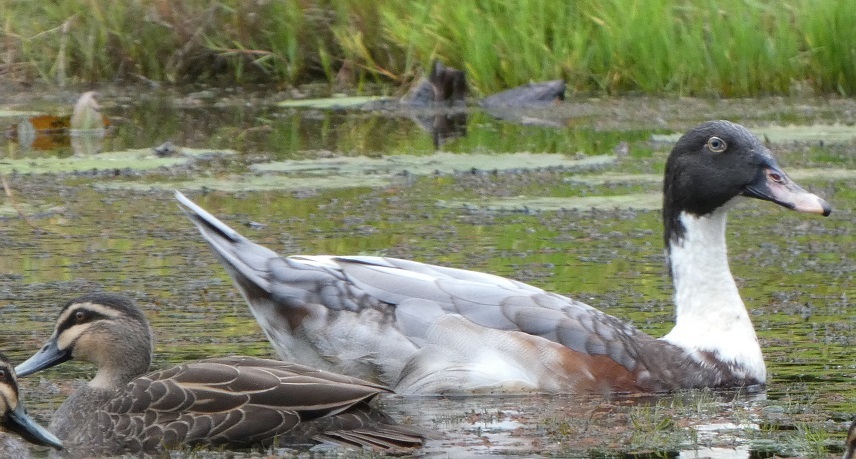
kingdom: Animalia
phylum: Chordata
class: Aves
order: Anseriformes
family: Anatidae
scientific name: Anatidae
